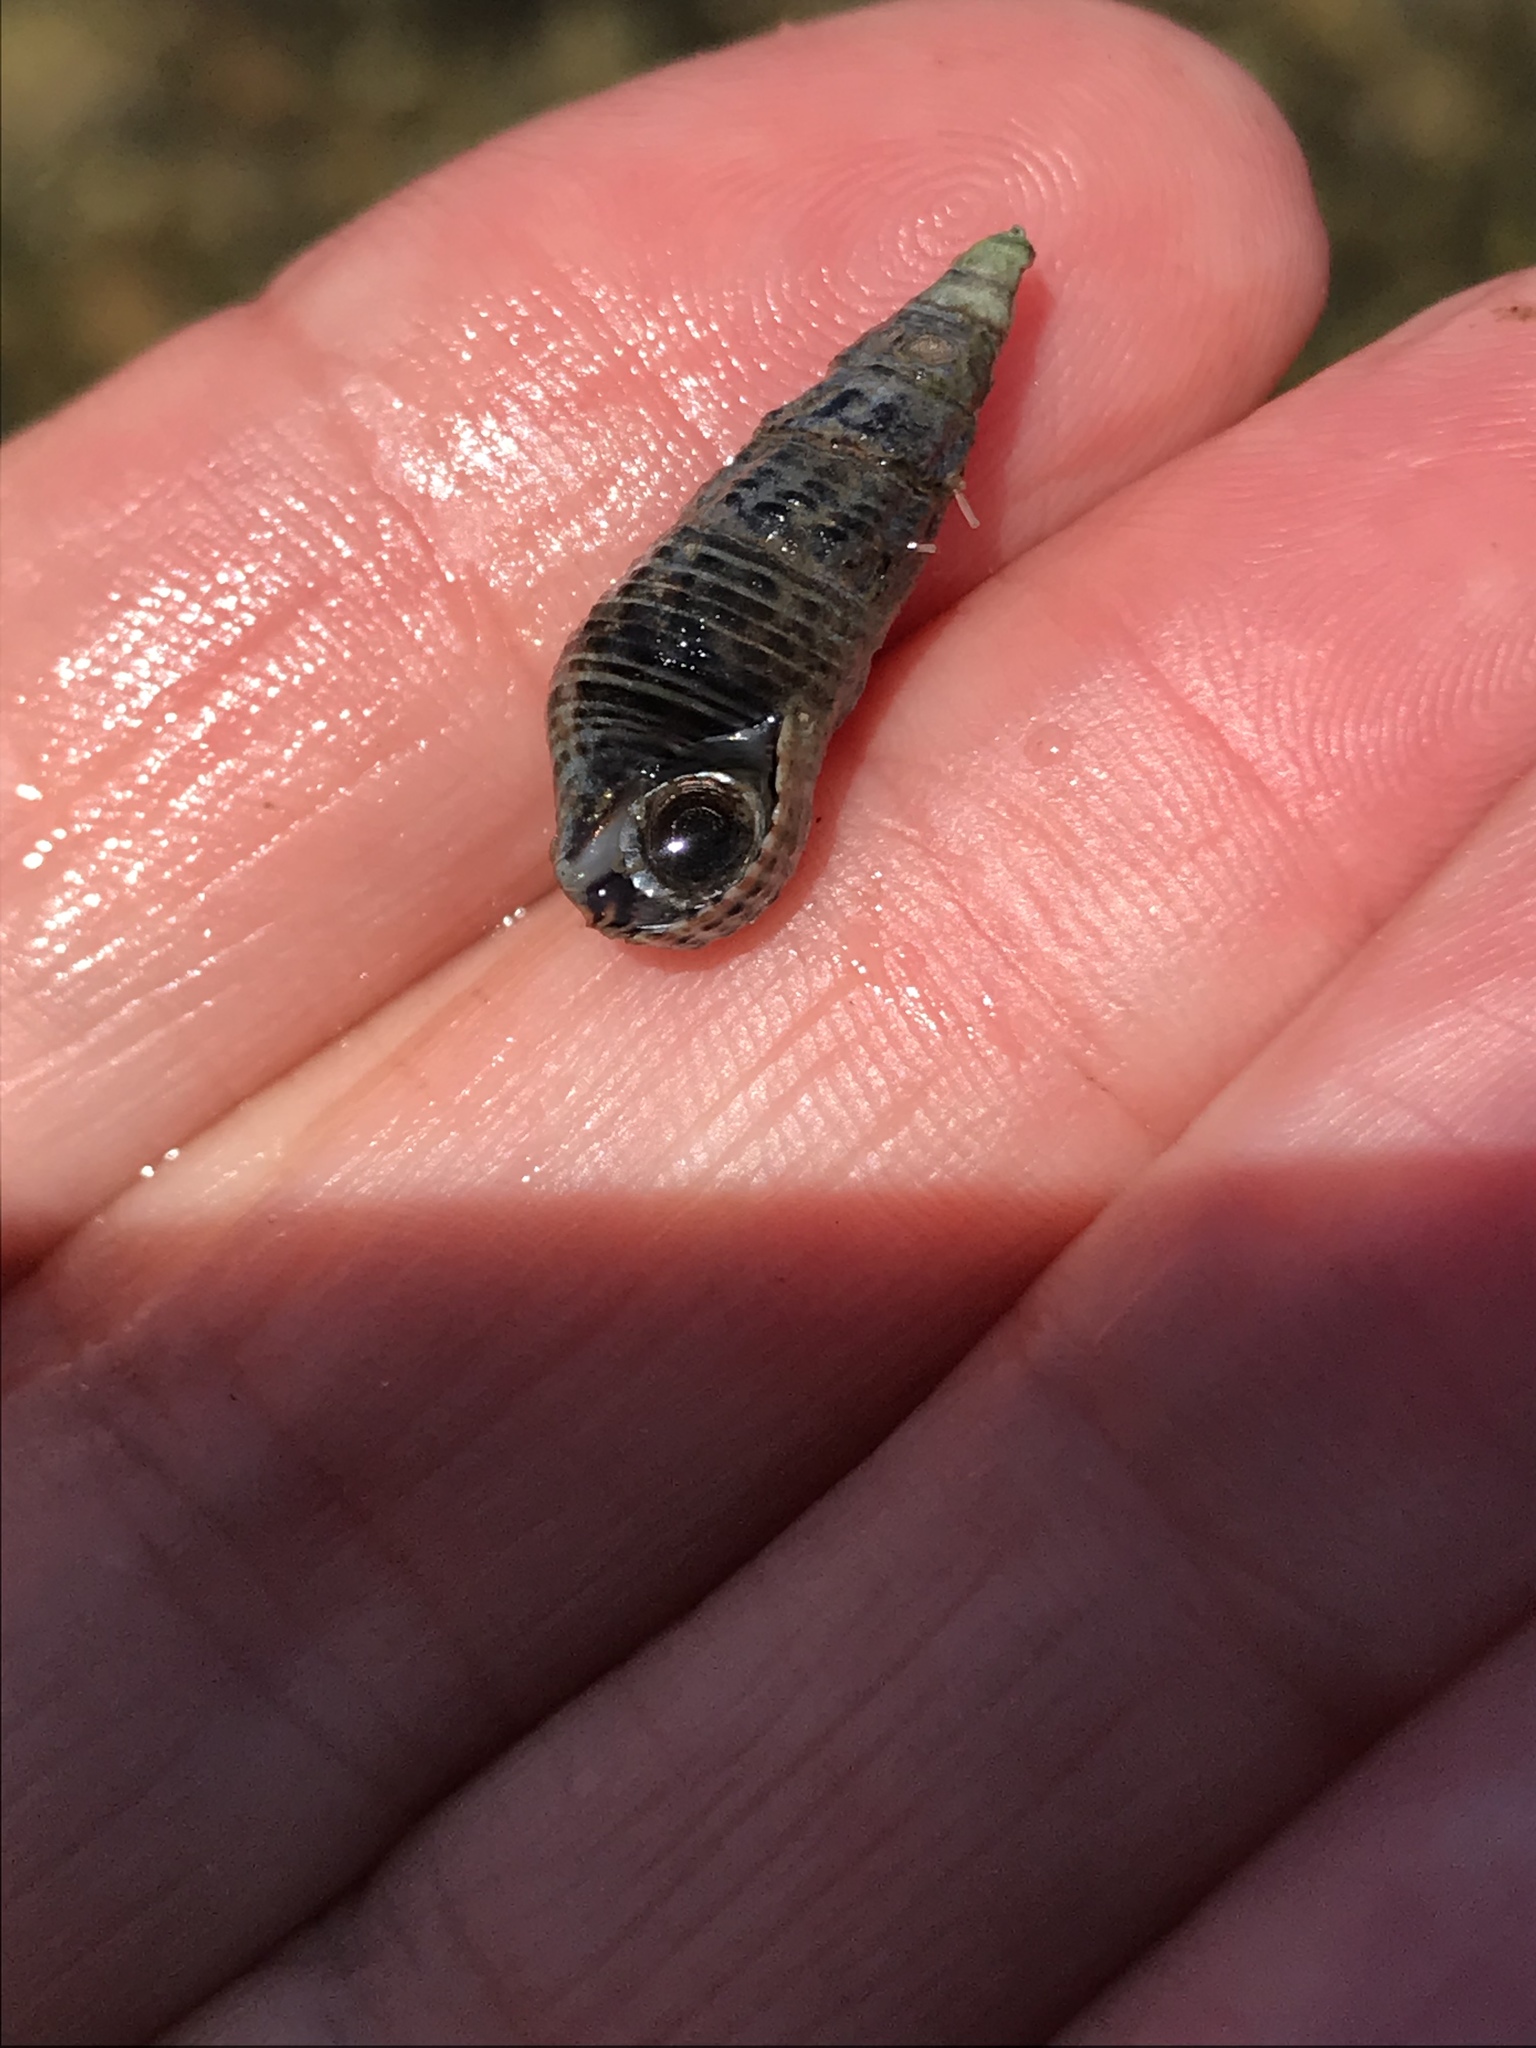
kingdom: Animalia
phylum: Mollusca
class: Gastropoda
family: Batillariidae
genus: Batillaria
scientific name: Batillaria attramentaria
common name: Japanese false cerith
